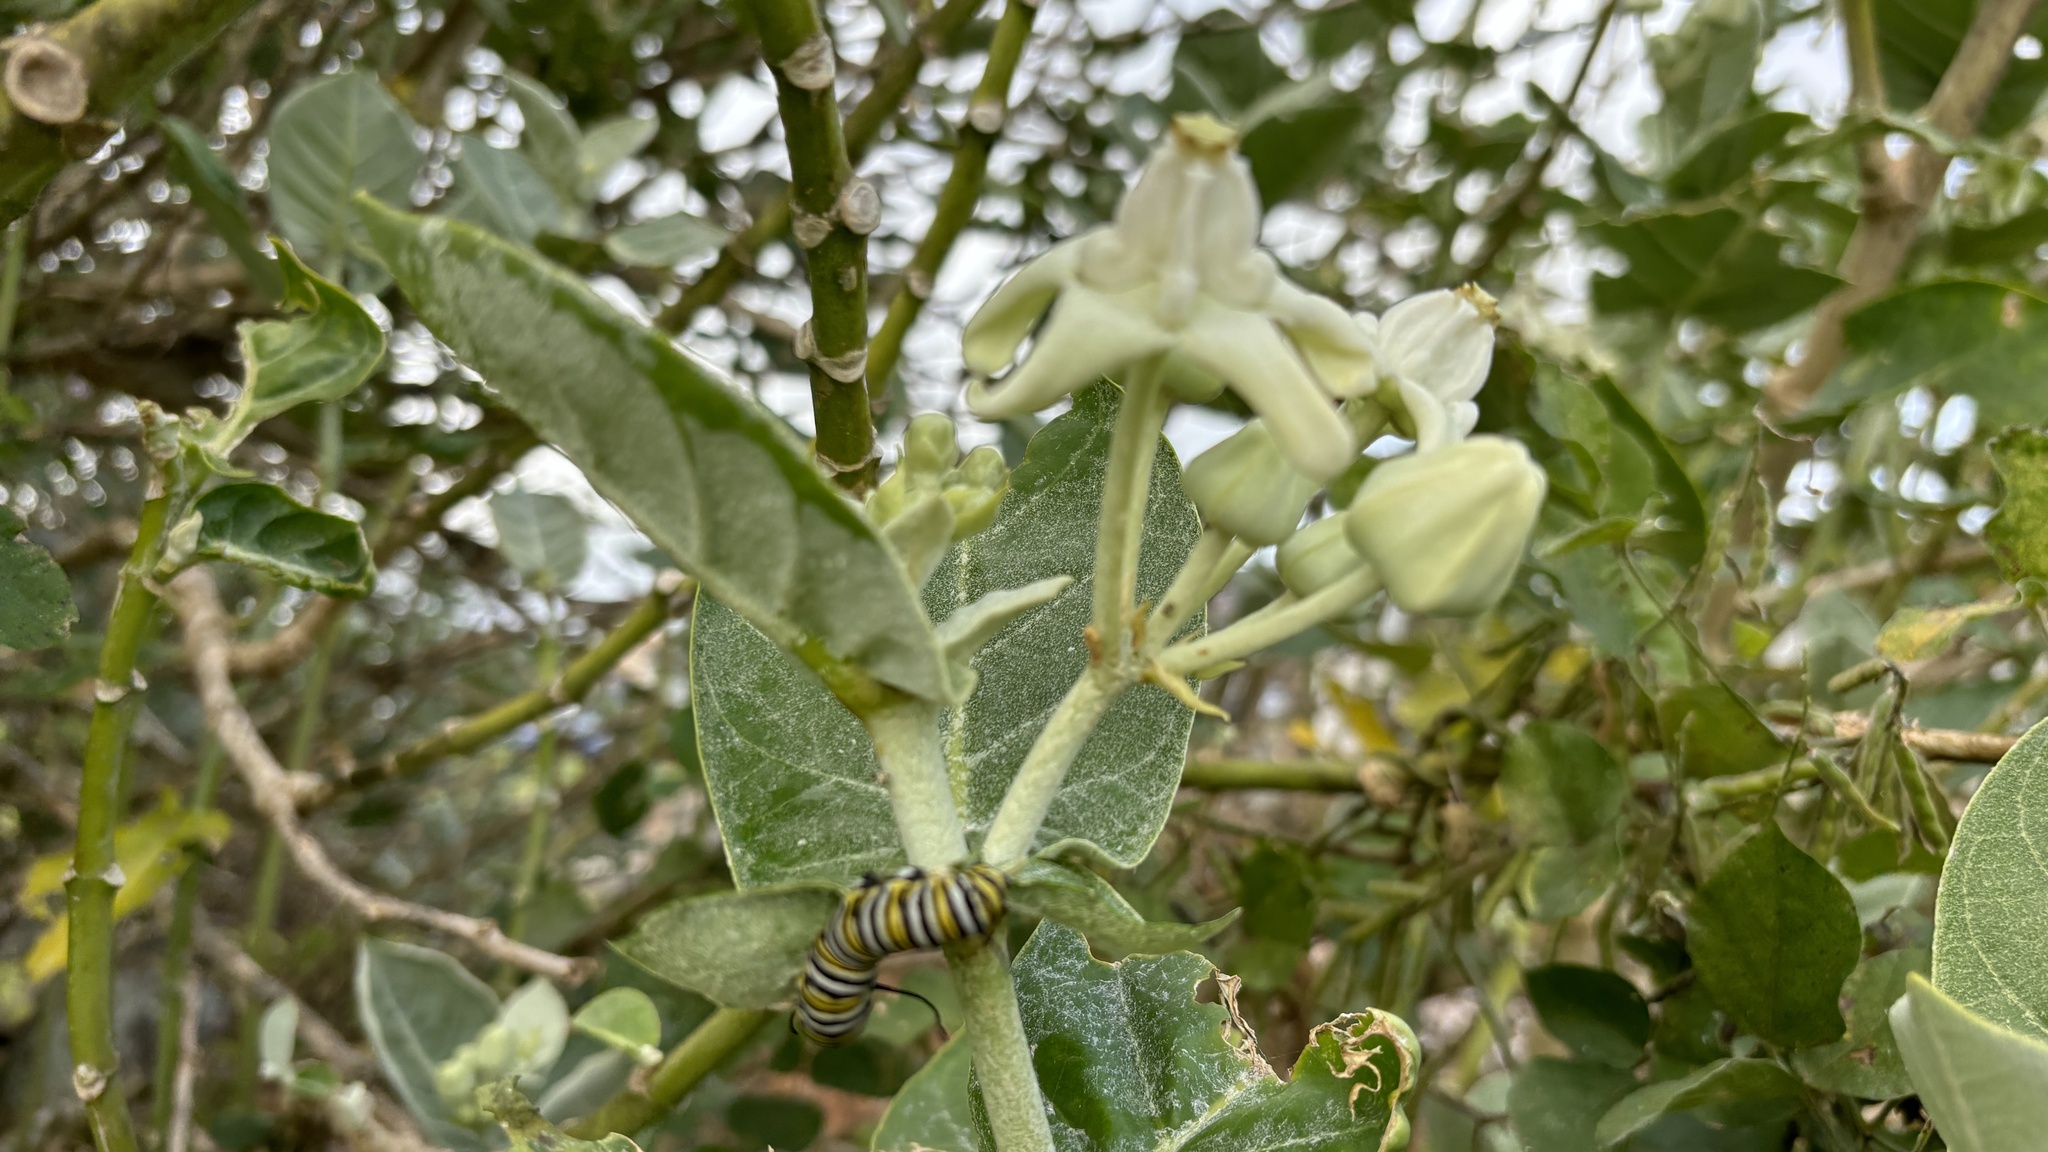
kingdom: Animalia
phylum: Arthropoda
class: Insecta
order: Lepidoptera
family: Nymphalidae
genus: Danaus
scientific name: Danaus plexippus
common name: Monarch
